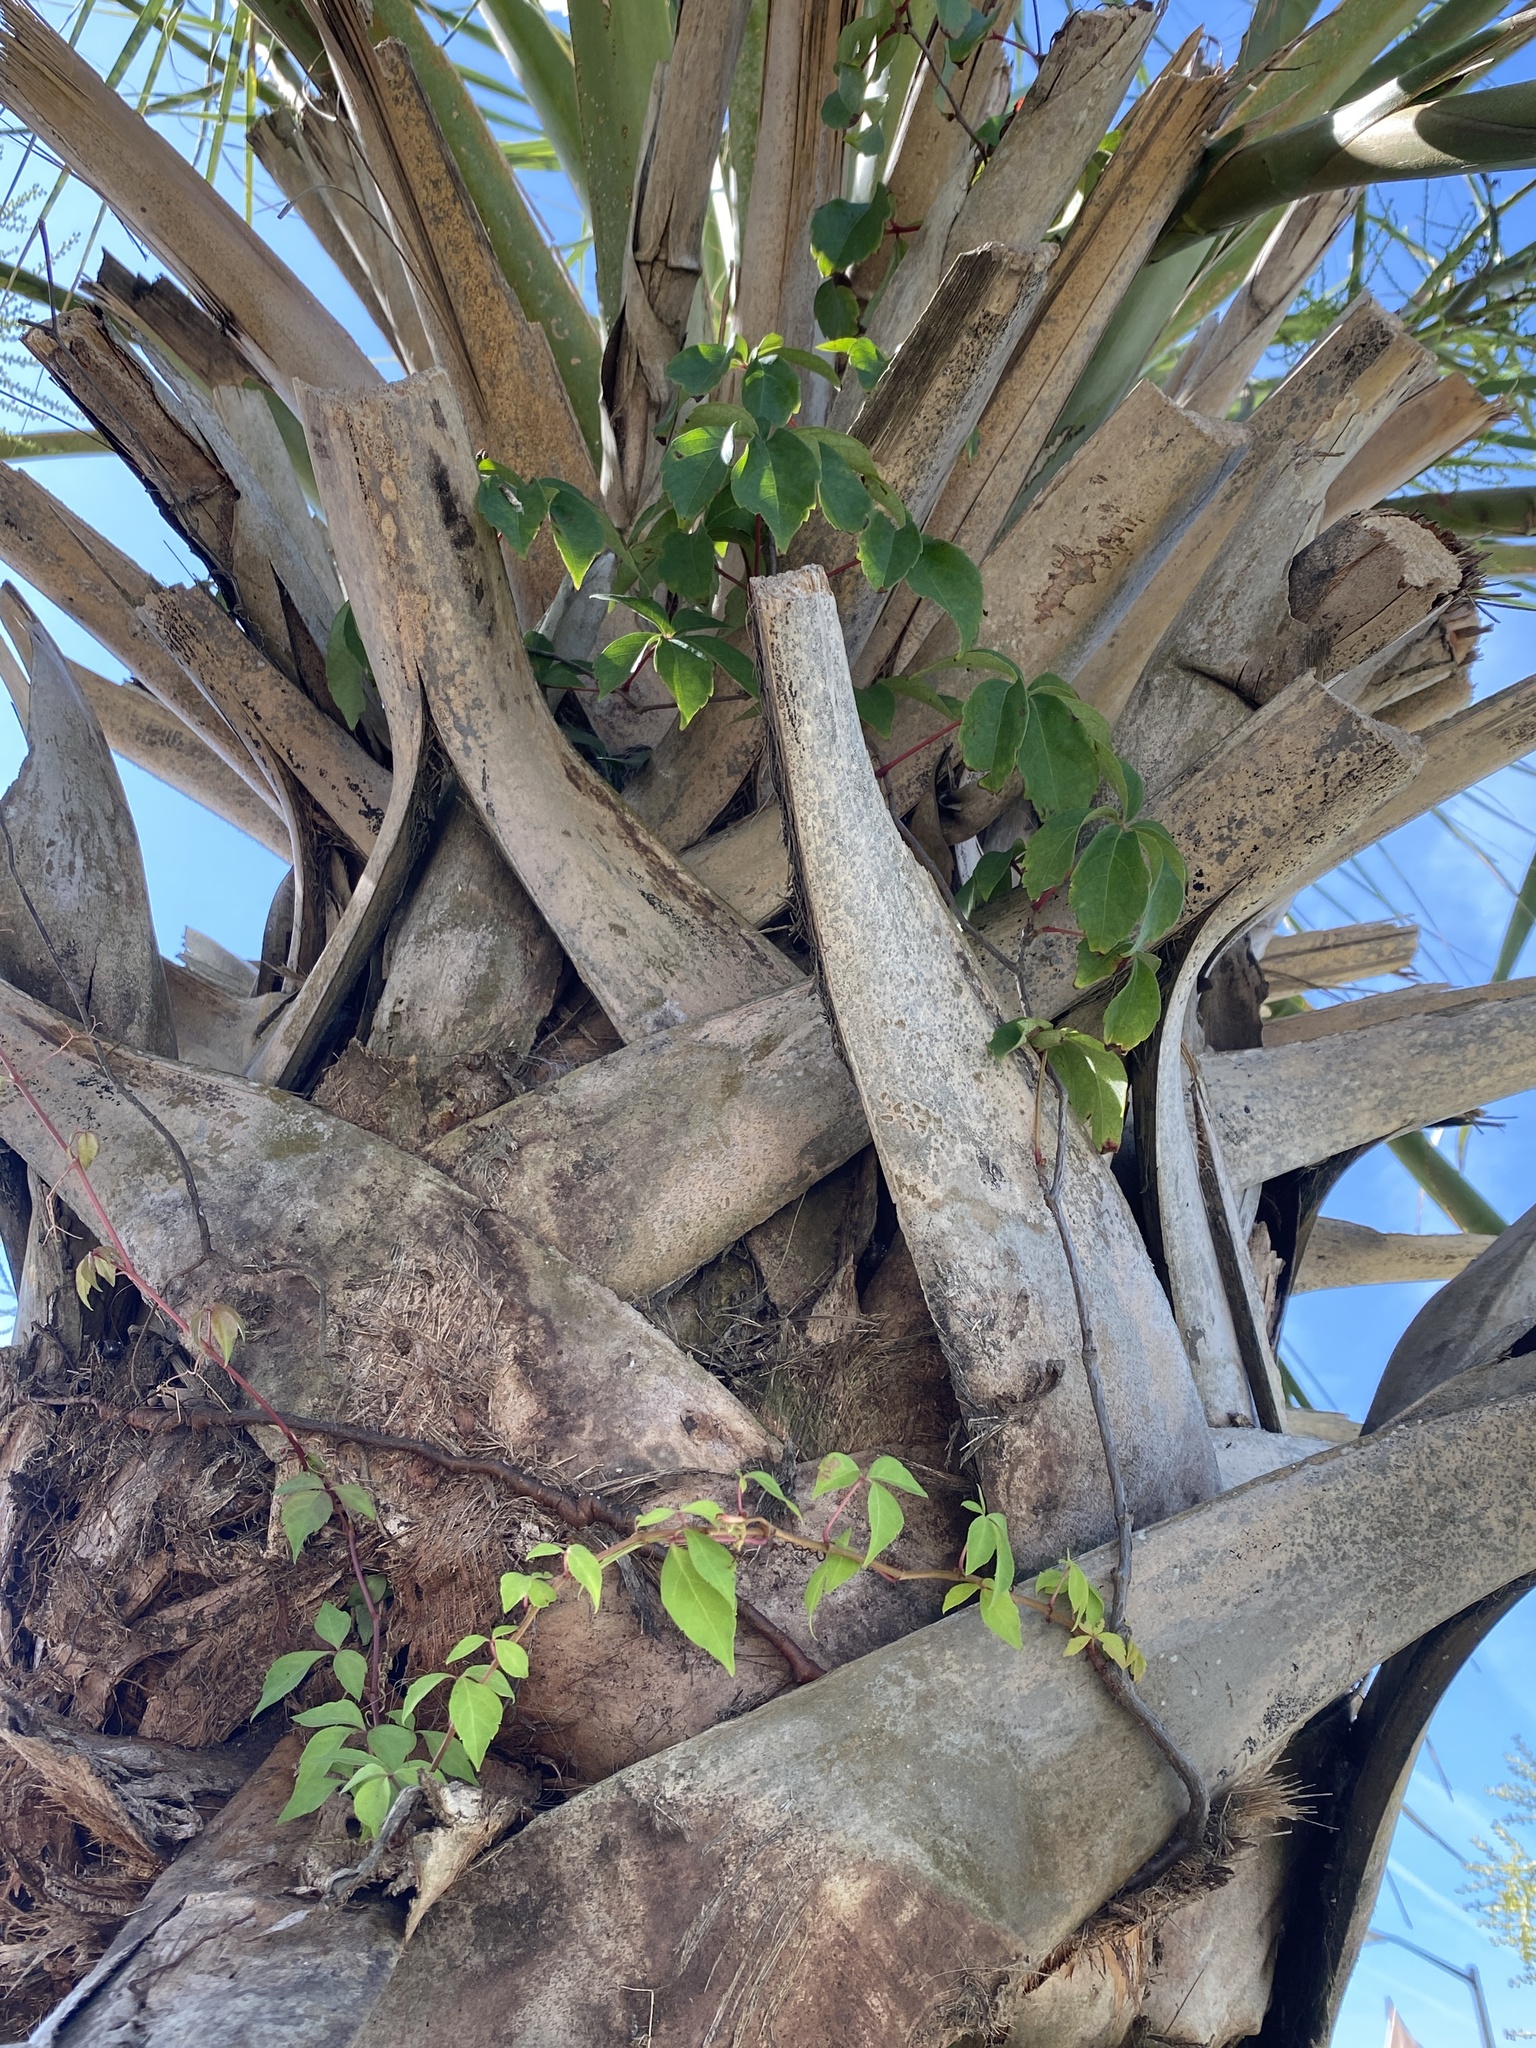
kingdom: Plantae
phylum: Tracheophyta
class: Magnoliopsida
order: Vitales
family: Vitaceae
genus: Parthenocissus
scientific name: Parthenocissus quinquefolia
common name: Virginia-creeper
